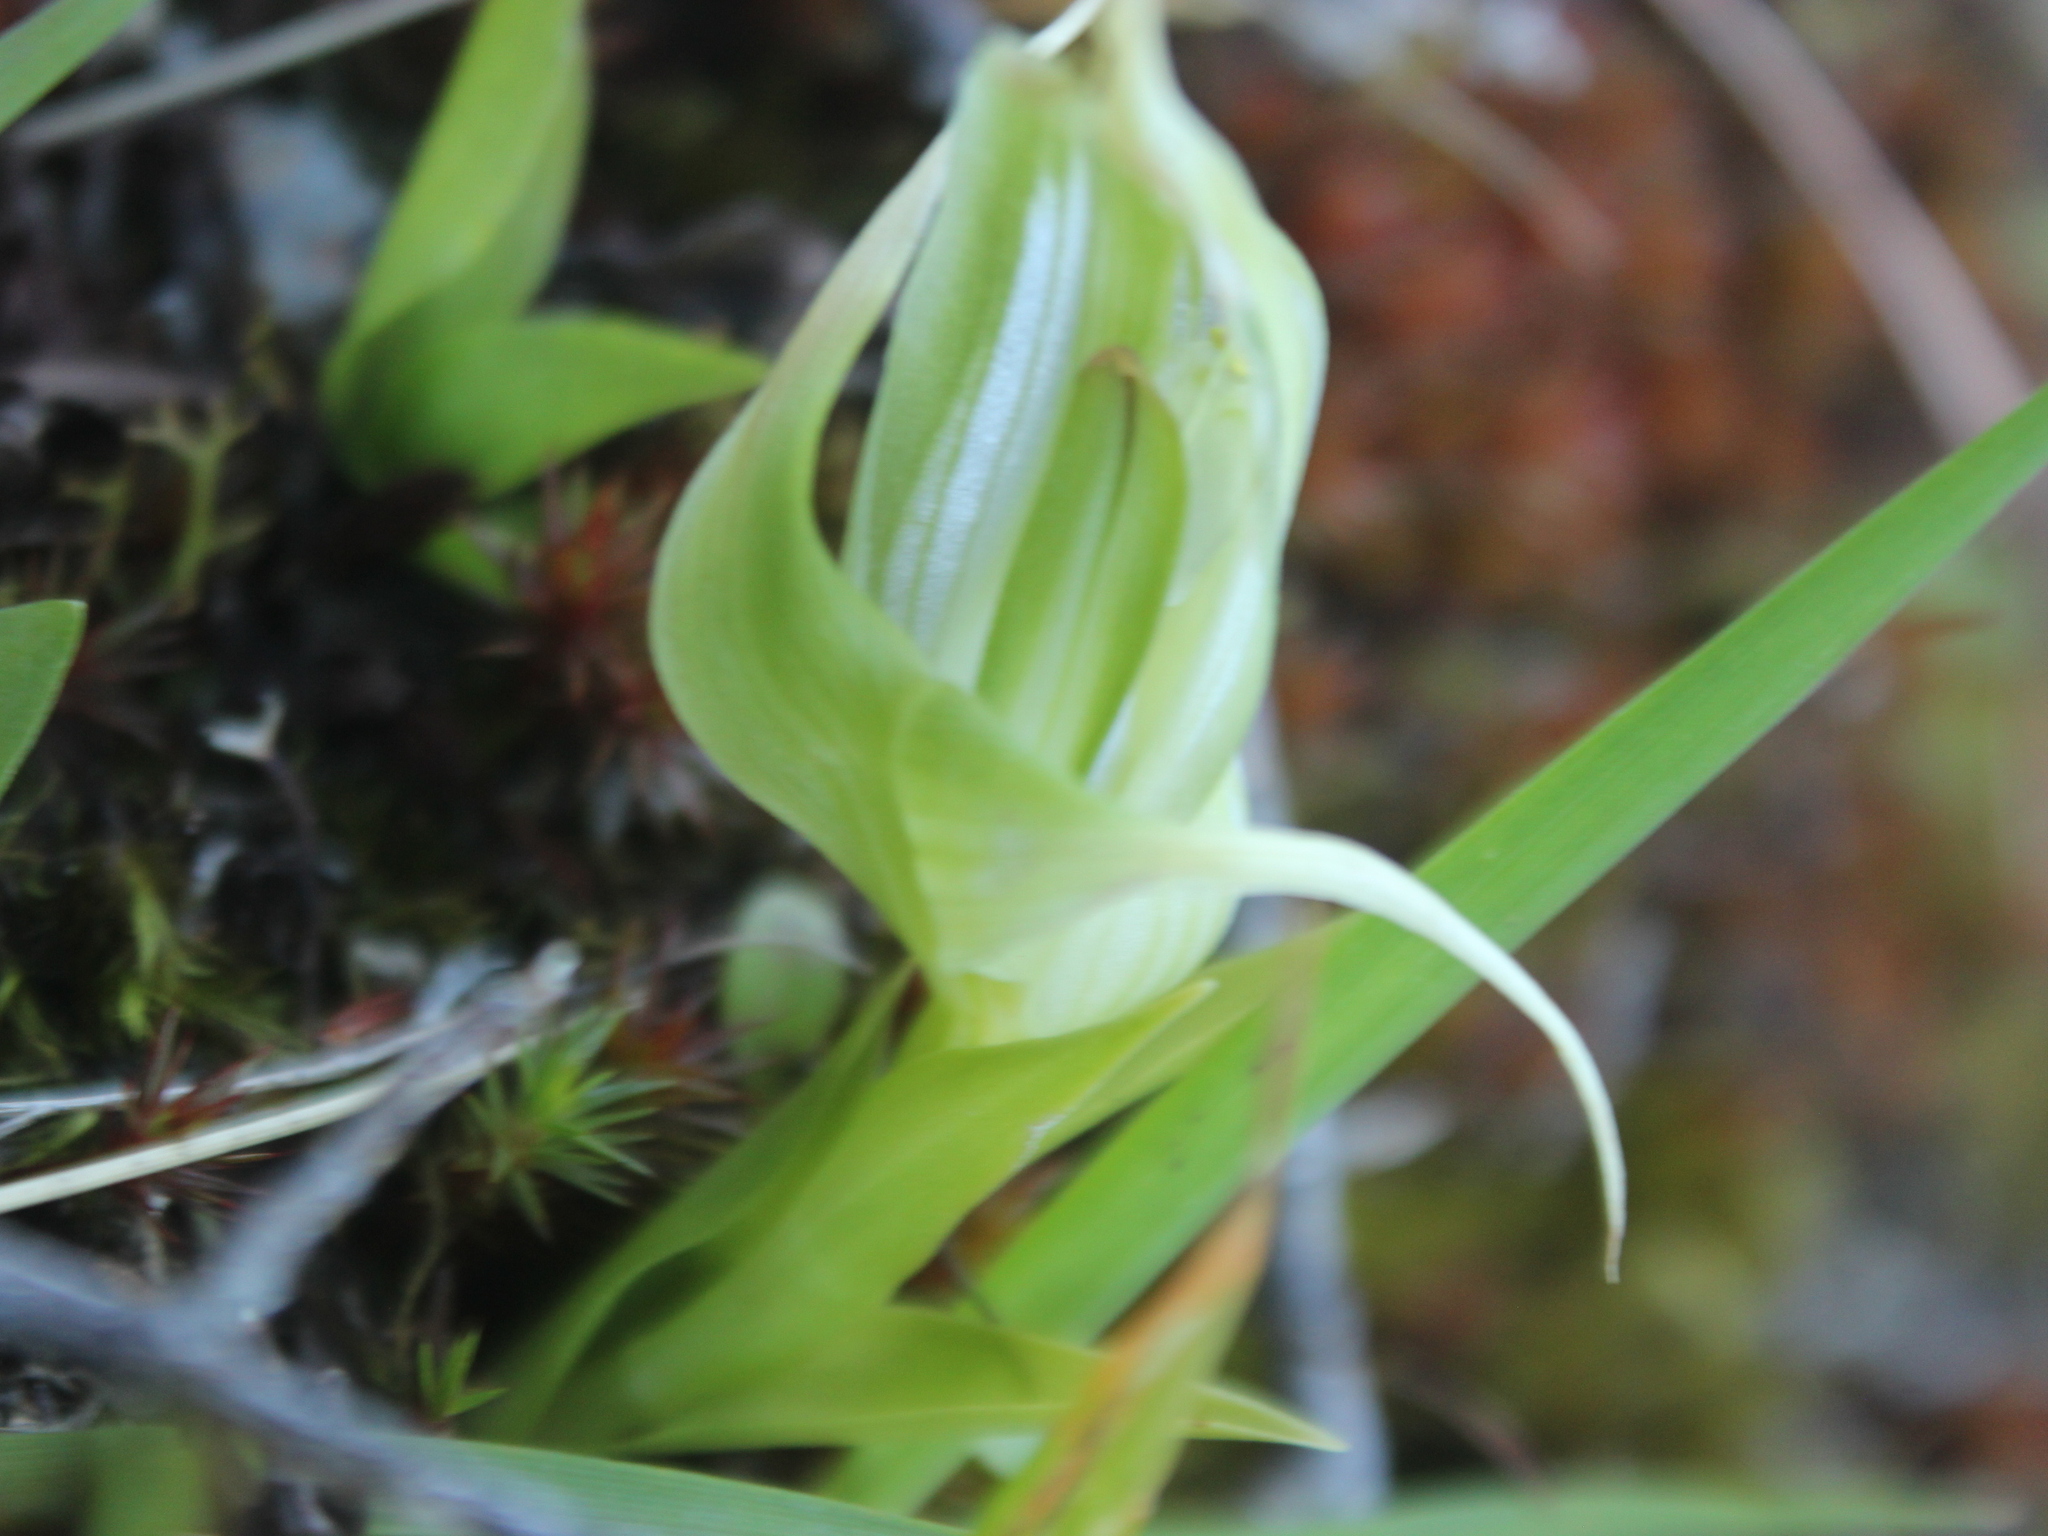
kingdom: Plantae
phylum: Tracheophyta
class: Liliopsida
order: Asparagales
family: Orchidaceae
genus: Pterostylis
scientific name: Pterostylis banksii
